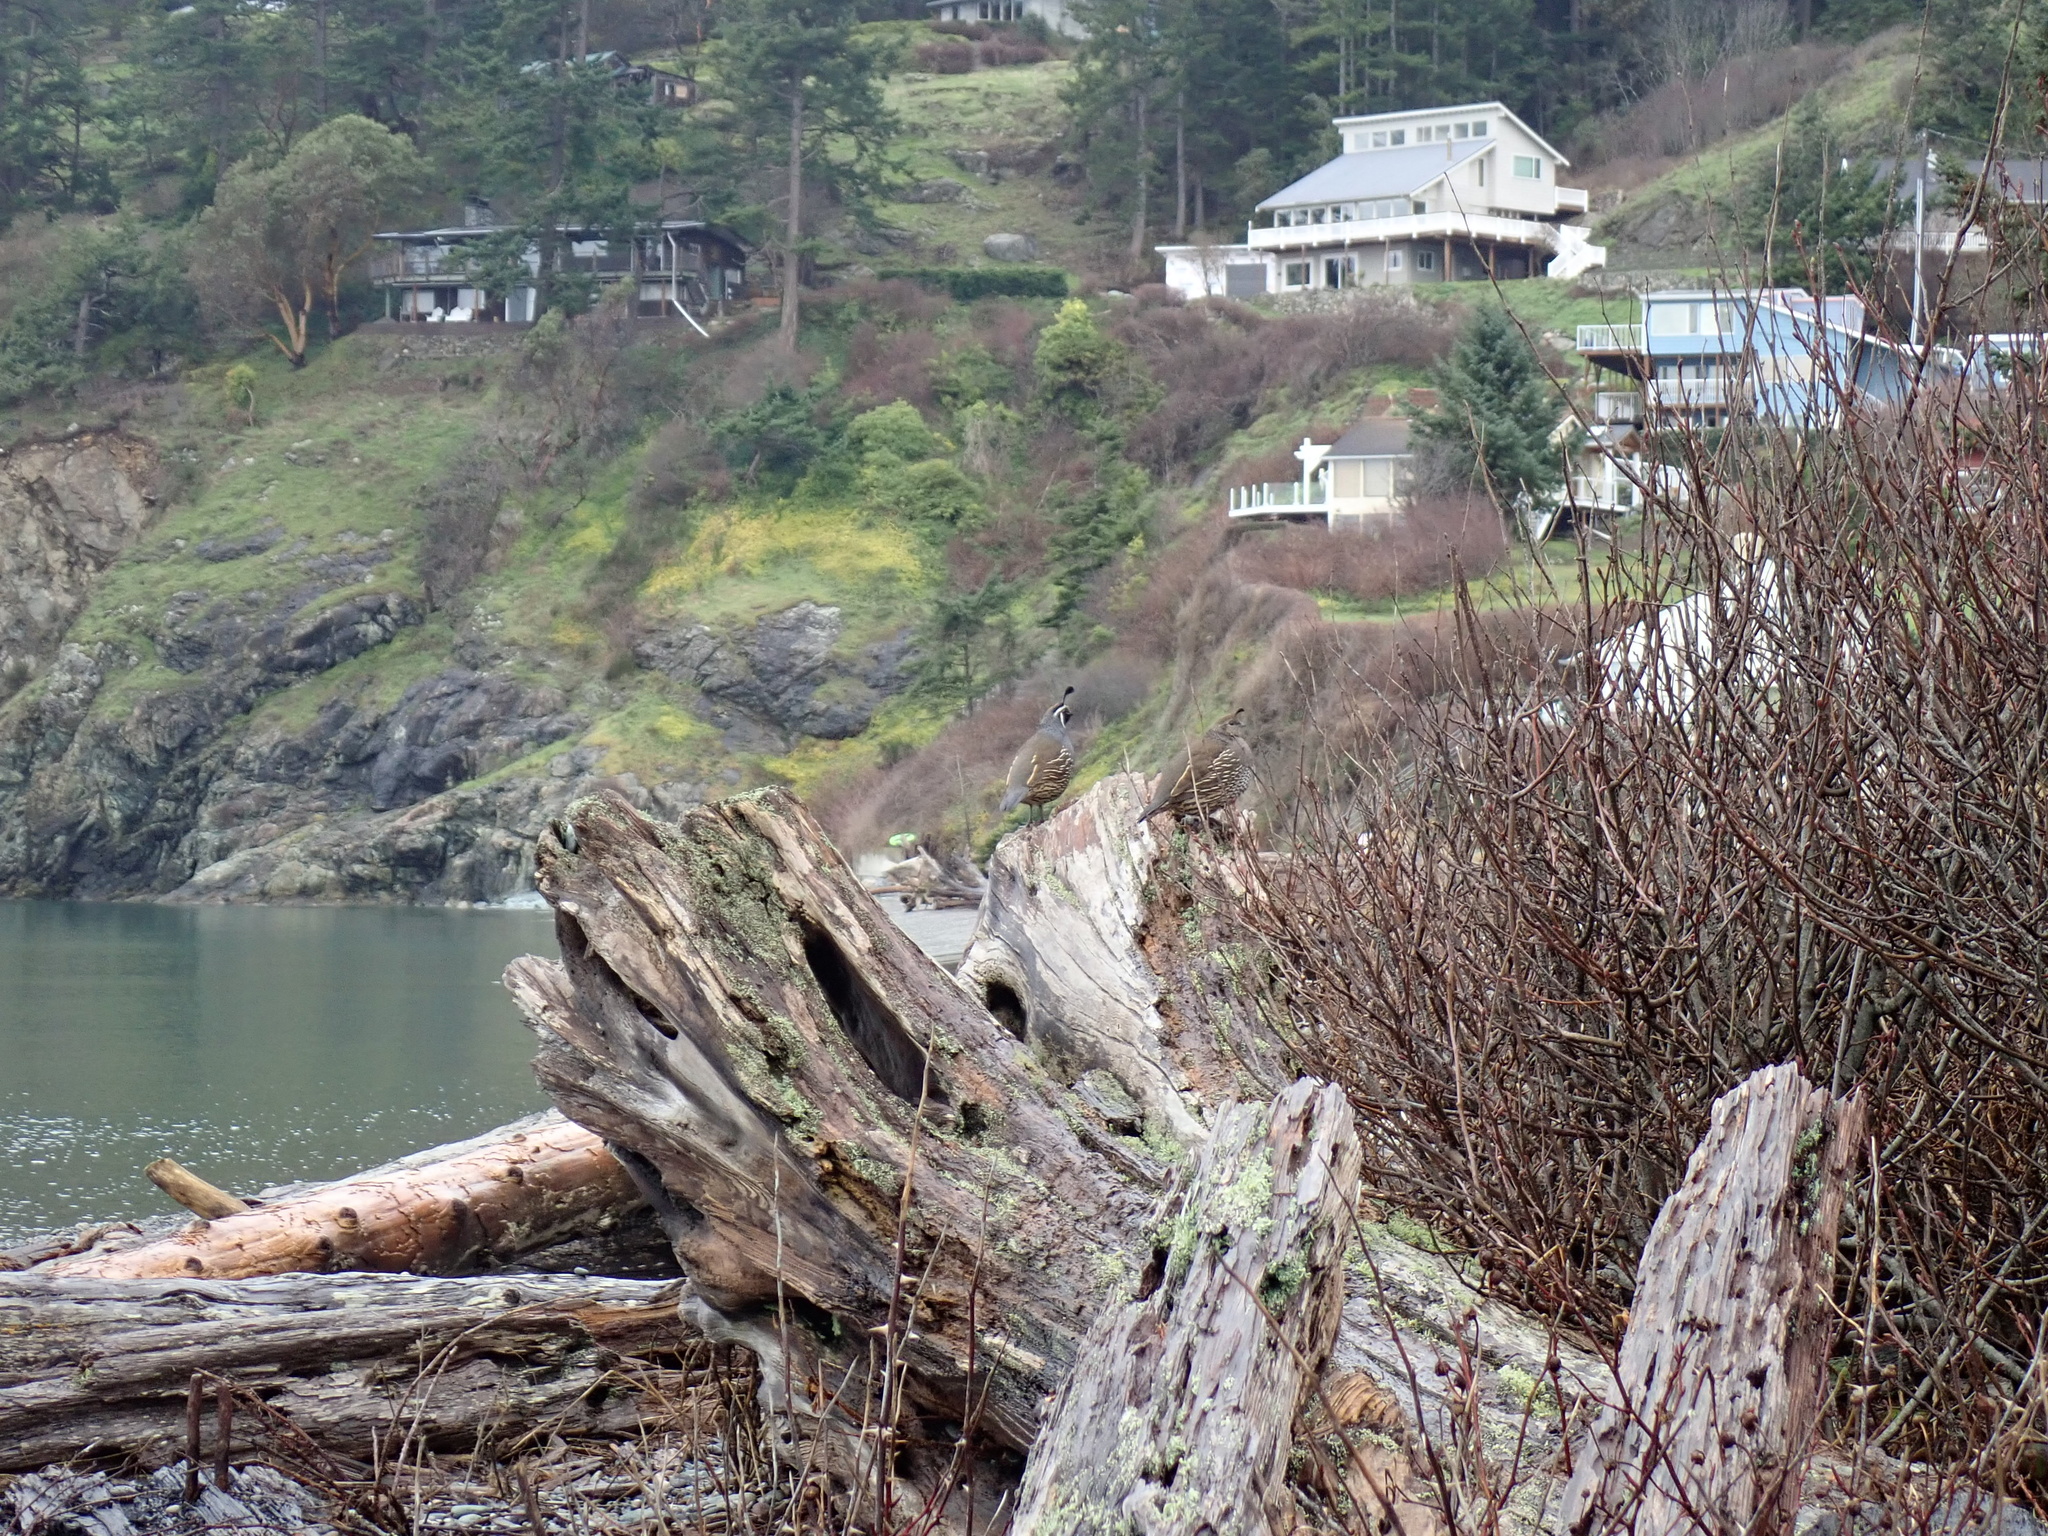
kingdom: Animalia
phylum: Chordata
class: Aves
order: Galliformes
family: Odontophoridae
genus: Callipepla
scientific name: Callipepla californica
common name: California quail
